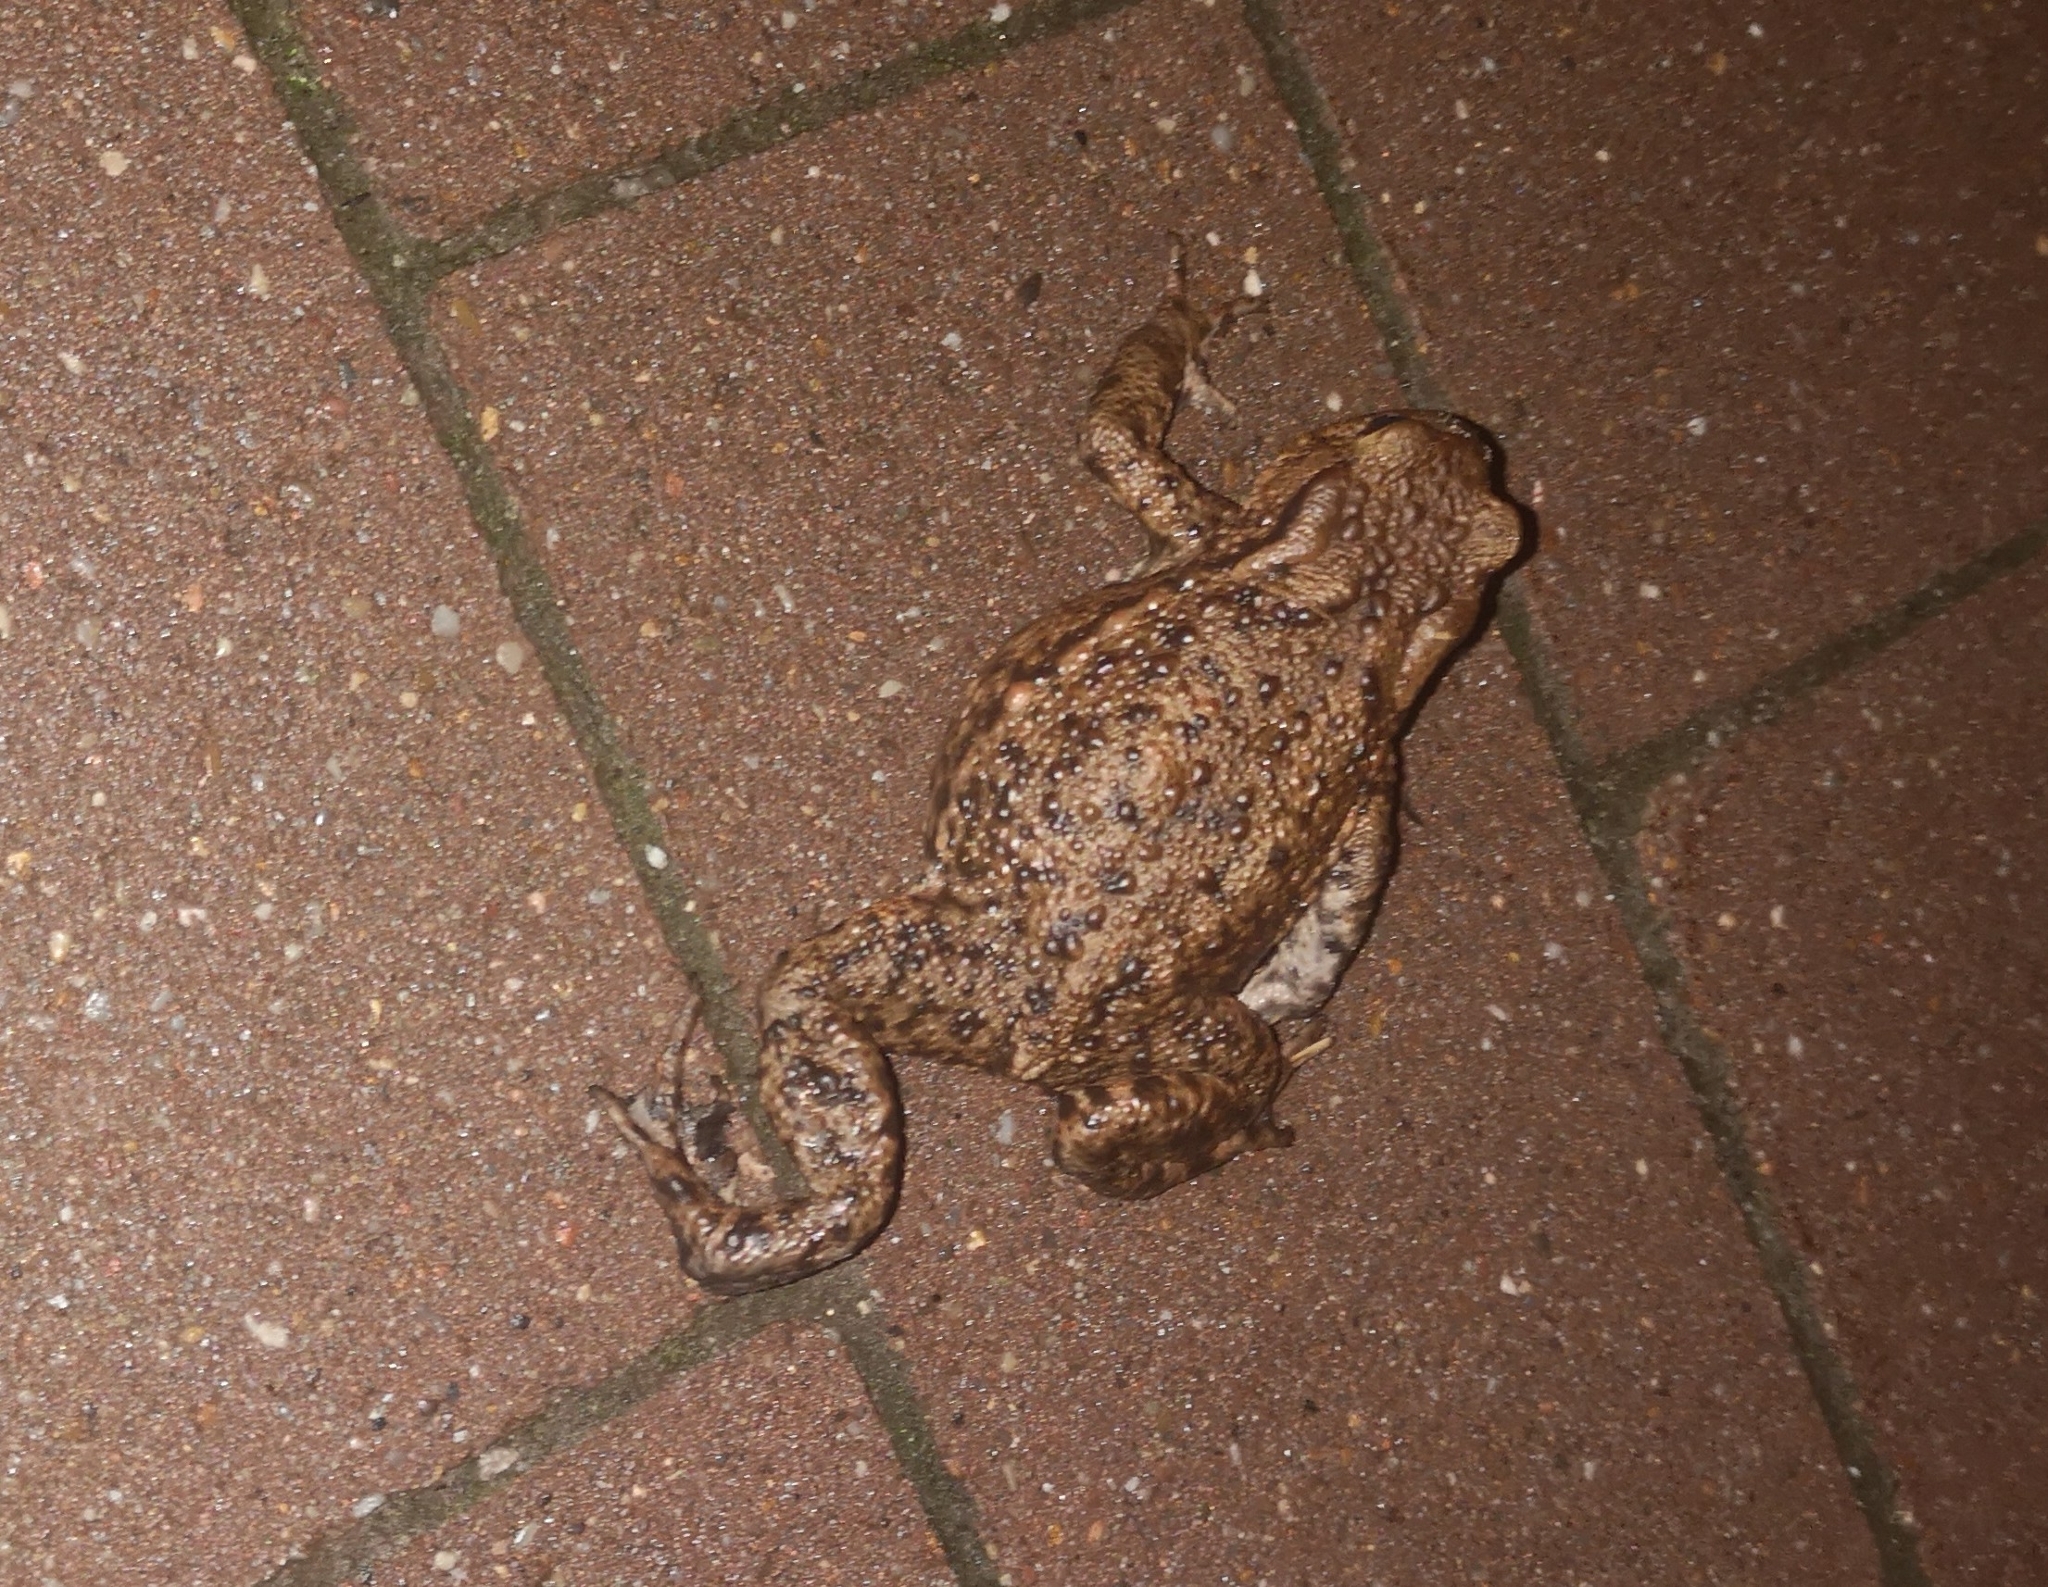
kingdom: Animalia
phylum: Chordata
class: Amphibia
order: Anura
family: Bufonidae
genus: Bufo
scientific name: Bufo bufo
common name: Common toad
